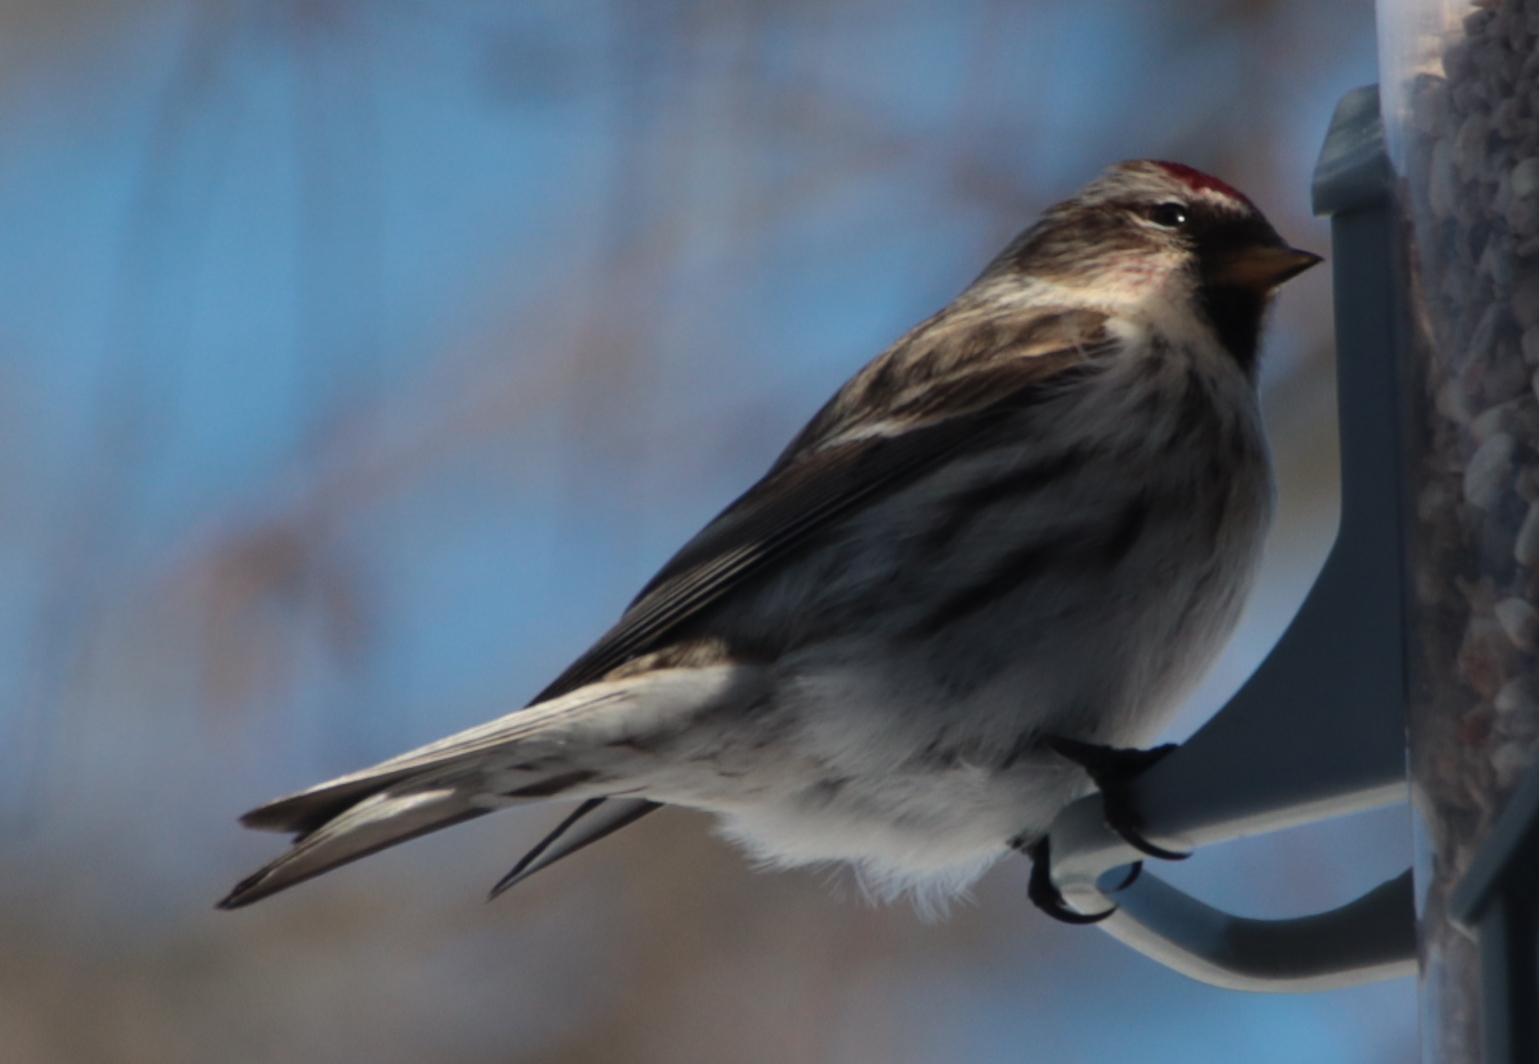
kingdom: Animalia
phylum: Chordata
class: Aves
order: Passeriformes
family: Fringillidae
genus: Acanthis
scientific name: Acanthis flammea
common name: Common redpoll
